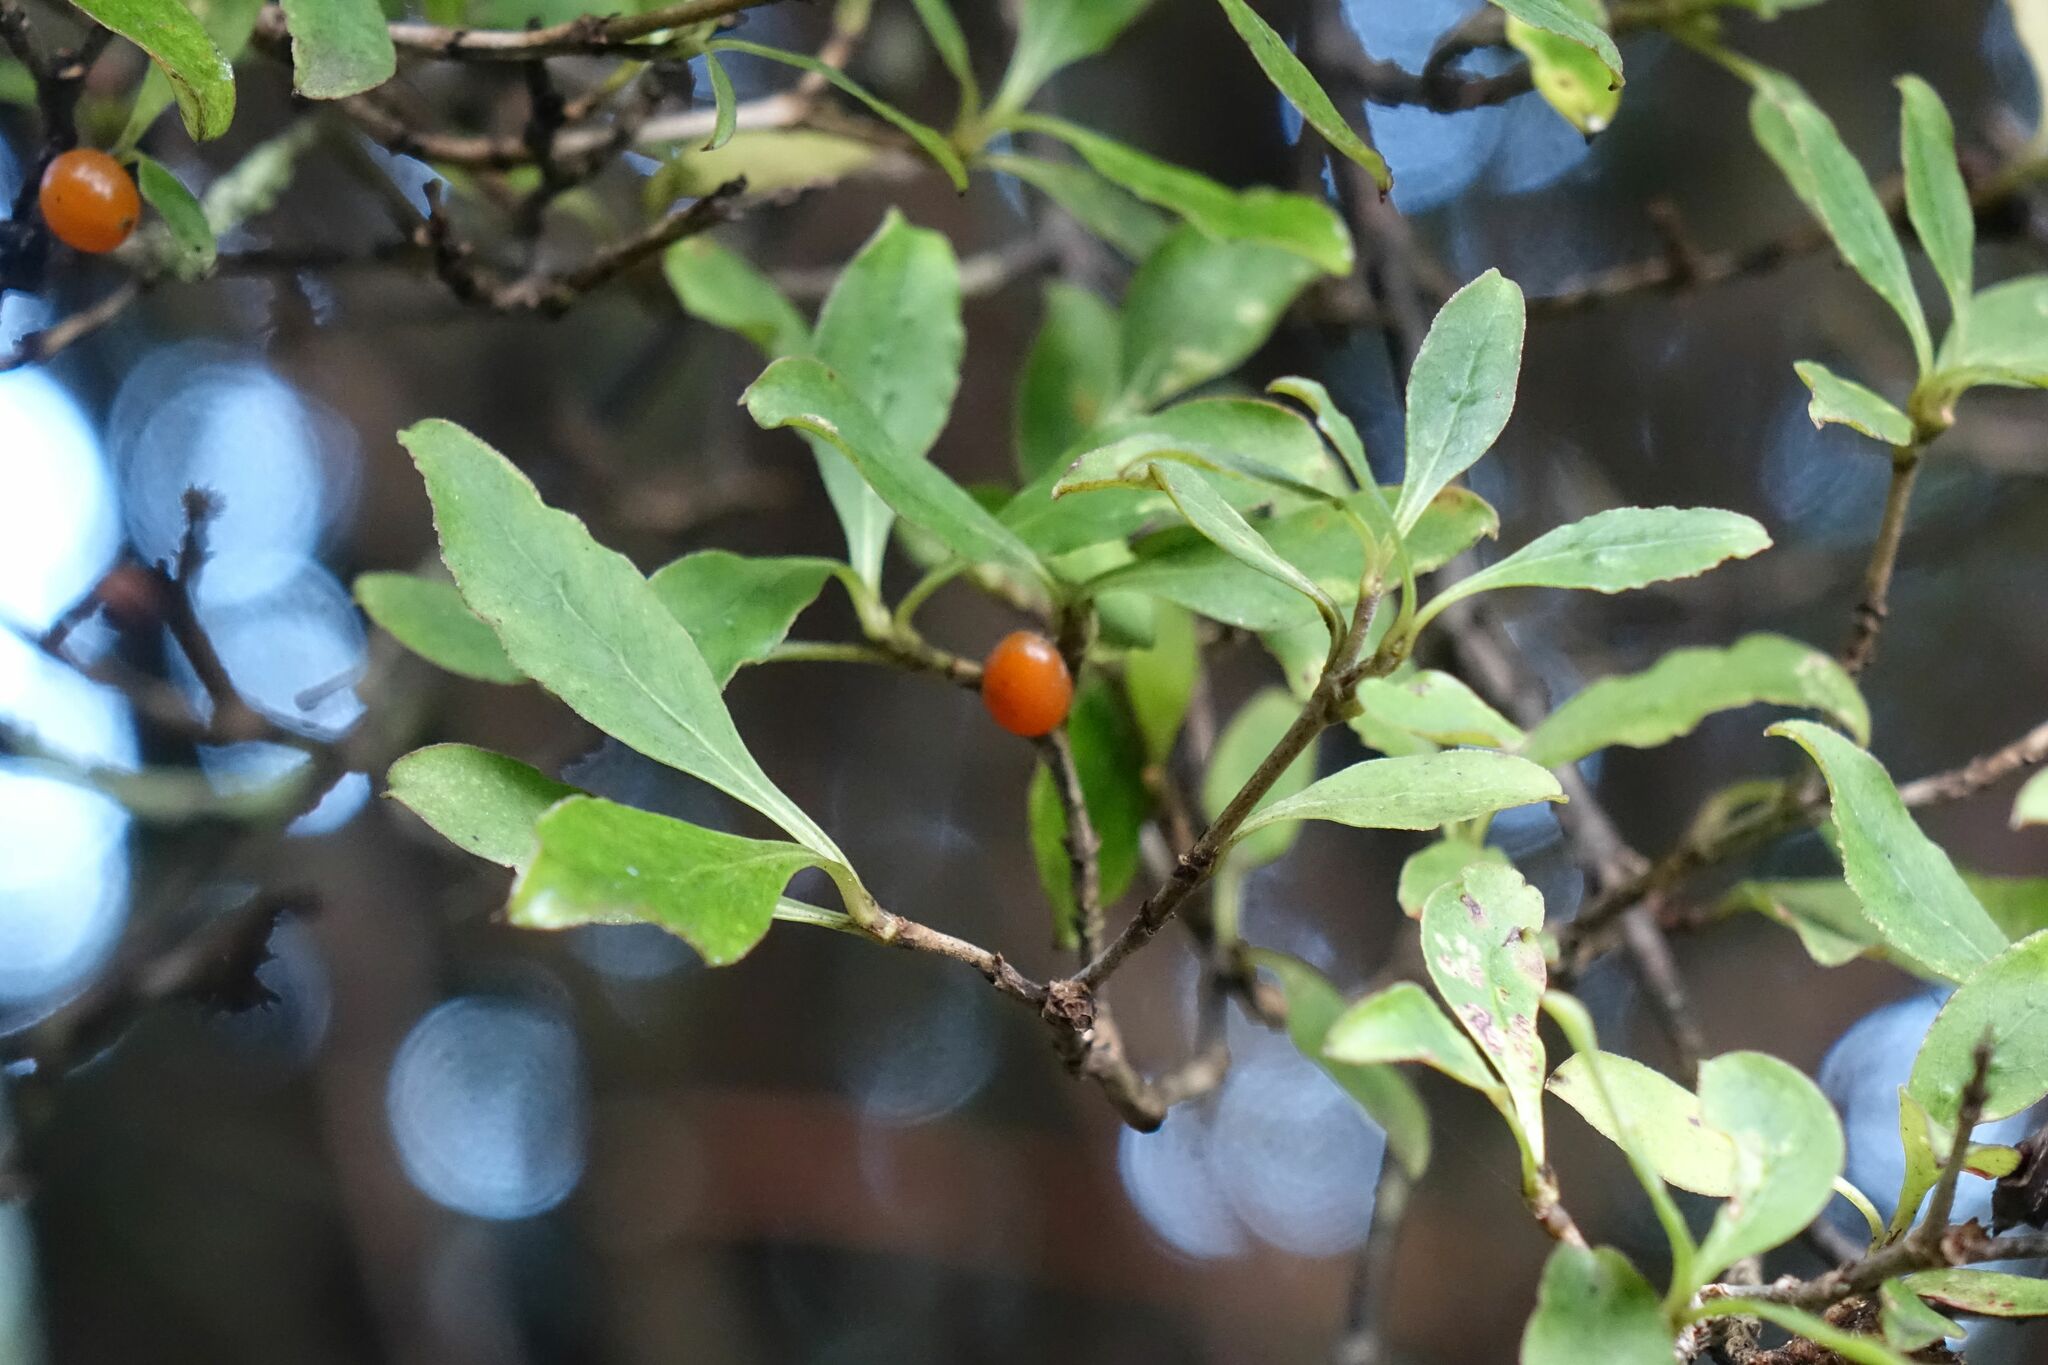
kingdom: Plantae
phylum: Tracheophyta
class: Magnoliopsida
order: Gentianales
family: Rubiaceae
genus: Coprosma
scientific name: Coprosma foetidissima
